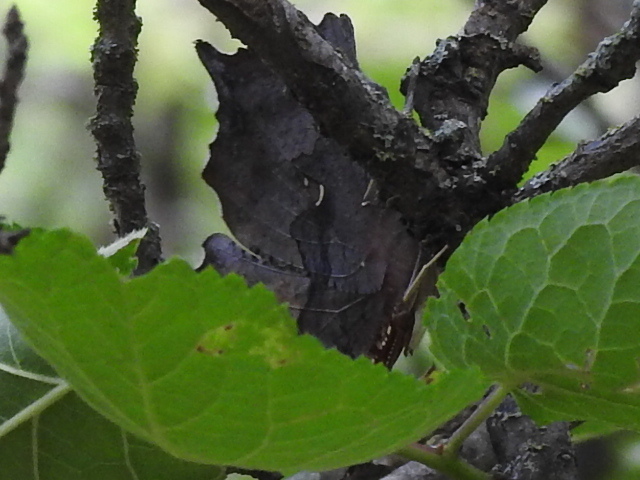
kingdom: Animalia
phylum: Arthropoda
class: Insecta
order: Lepidoptera
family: Nymphalidae
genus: Polygonia
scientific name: Polygonia interrogationis
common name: Question mark
